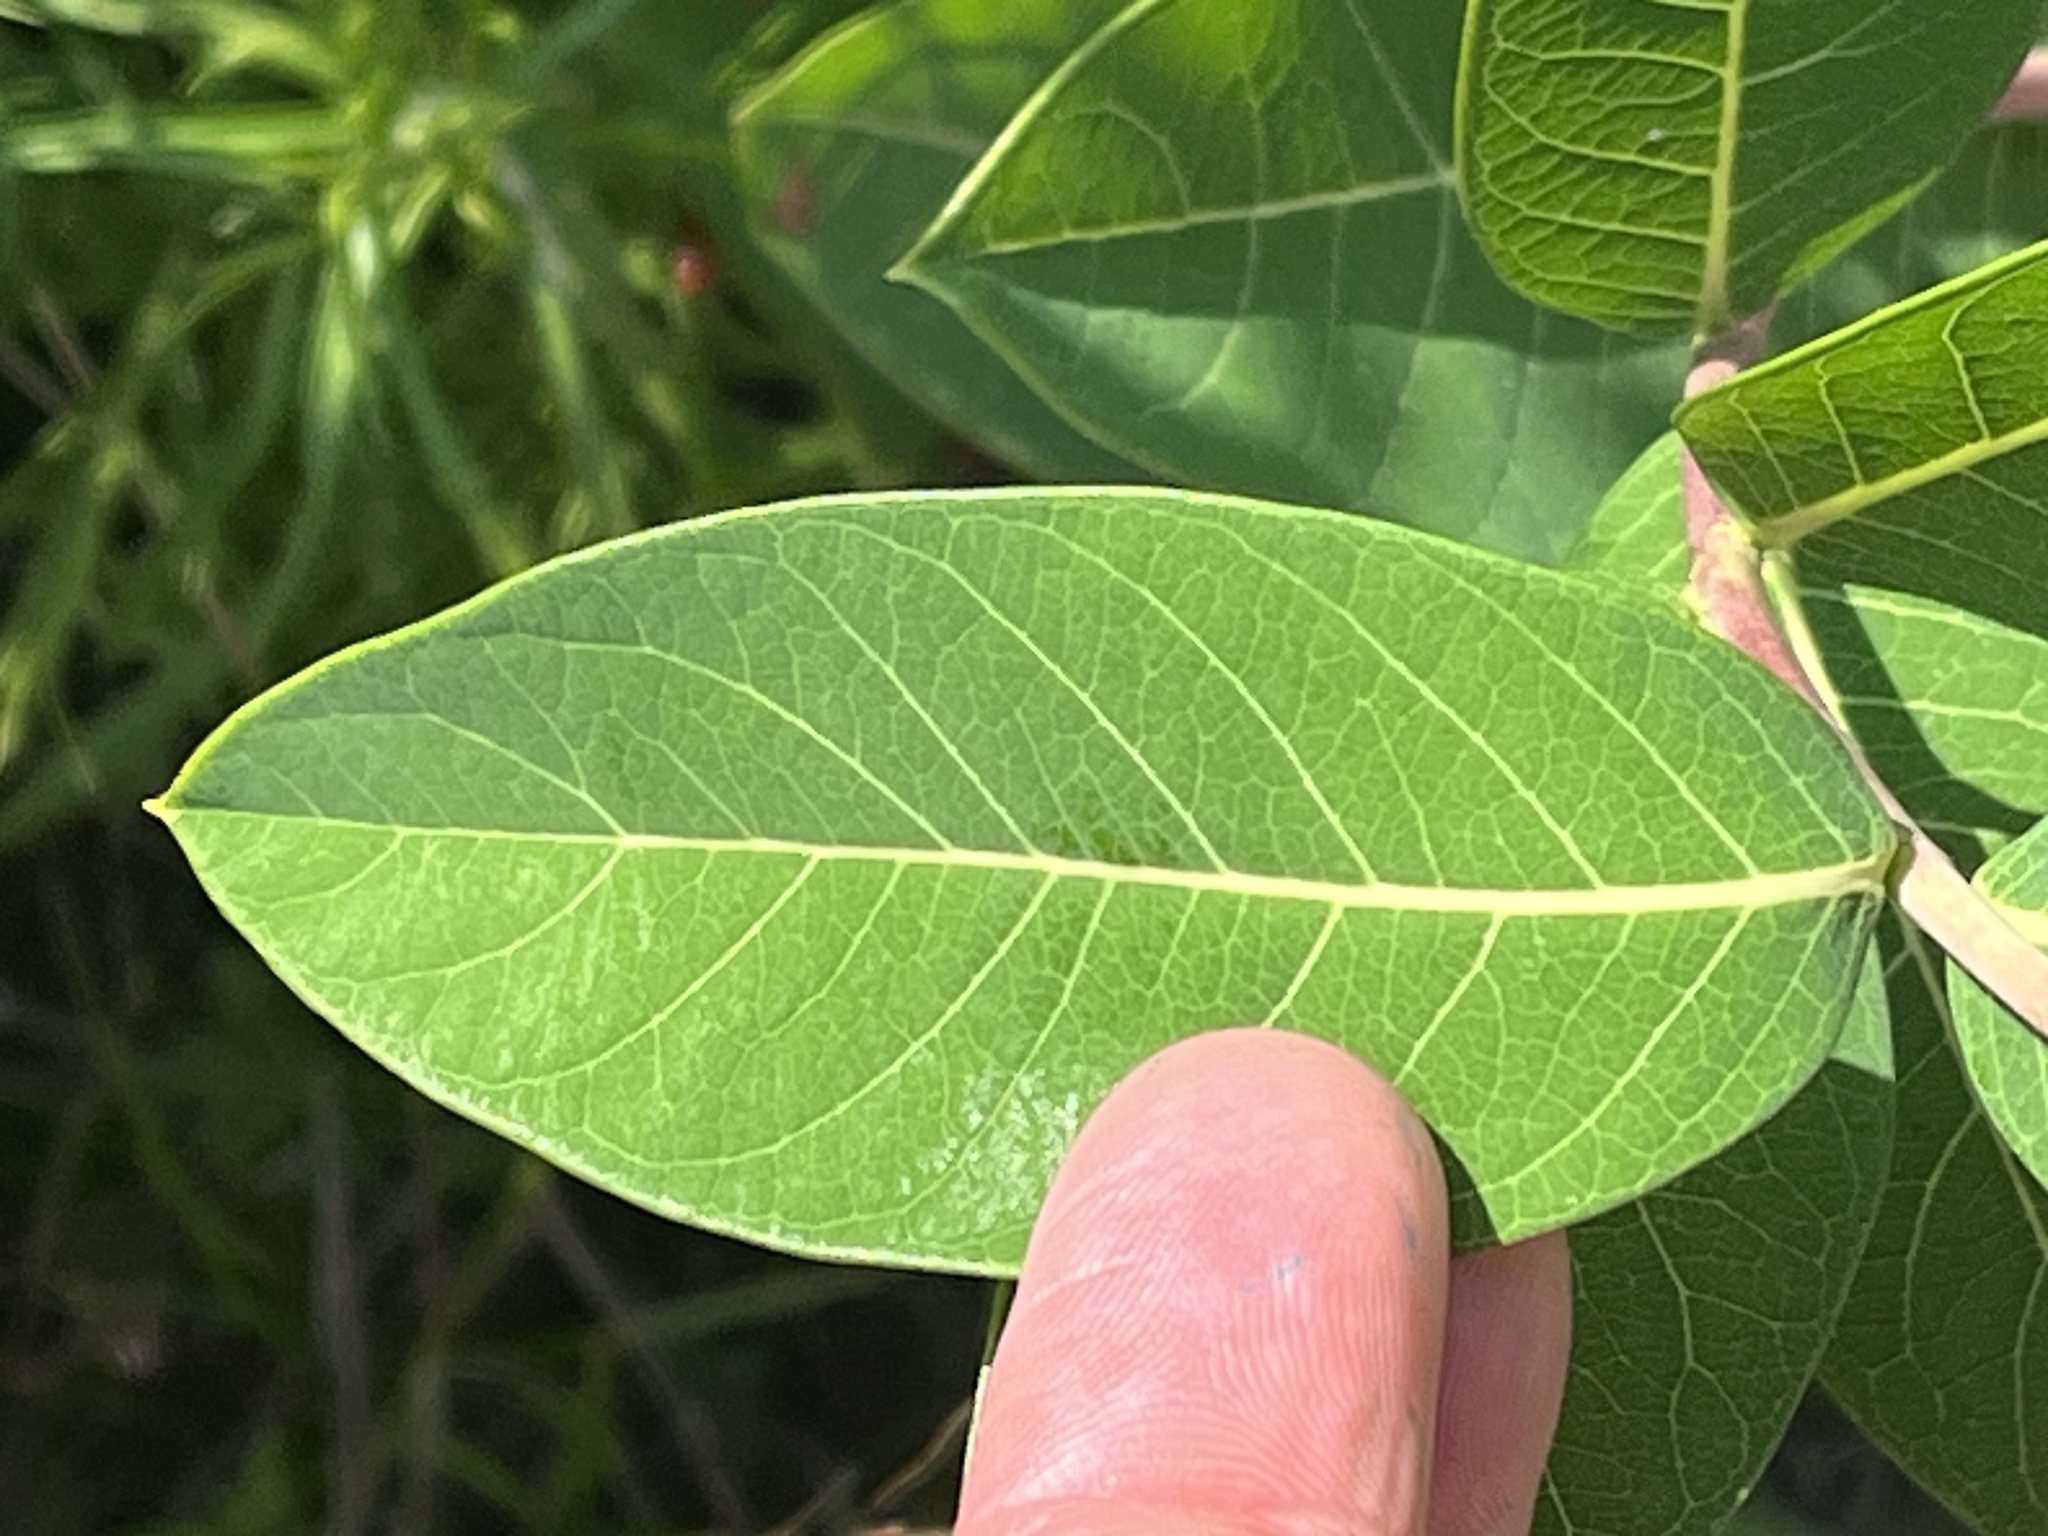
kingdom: Plantae
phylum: Tracheophyta
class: Magnoliopsida
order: Gentianales
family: Apocynaceae
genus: Apocynum
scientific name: Apocynum cannabinum
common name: Hemp dogbane
